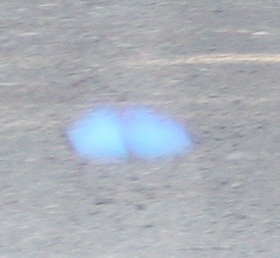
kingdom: Animalia
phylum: Arthropoda
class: Insecta
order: Lepidoptera
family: Nymphalidae
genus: Morpho
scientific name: Morpho amathonte
